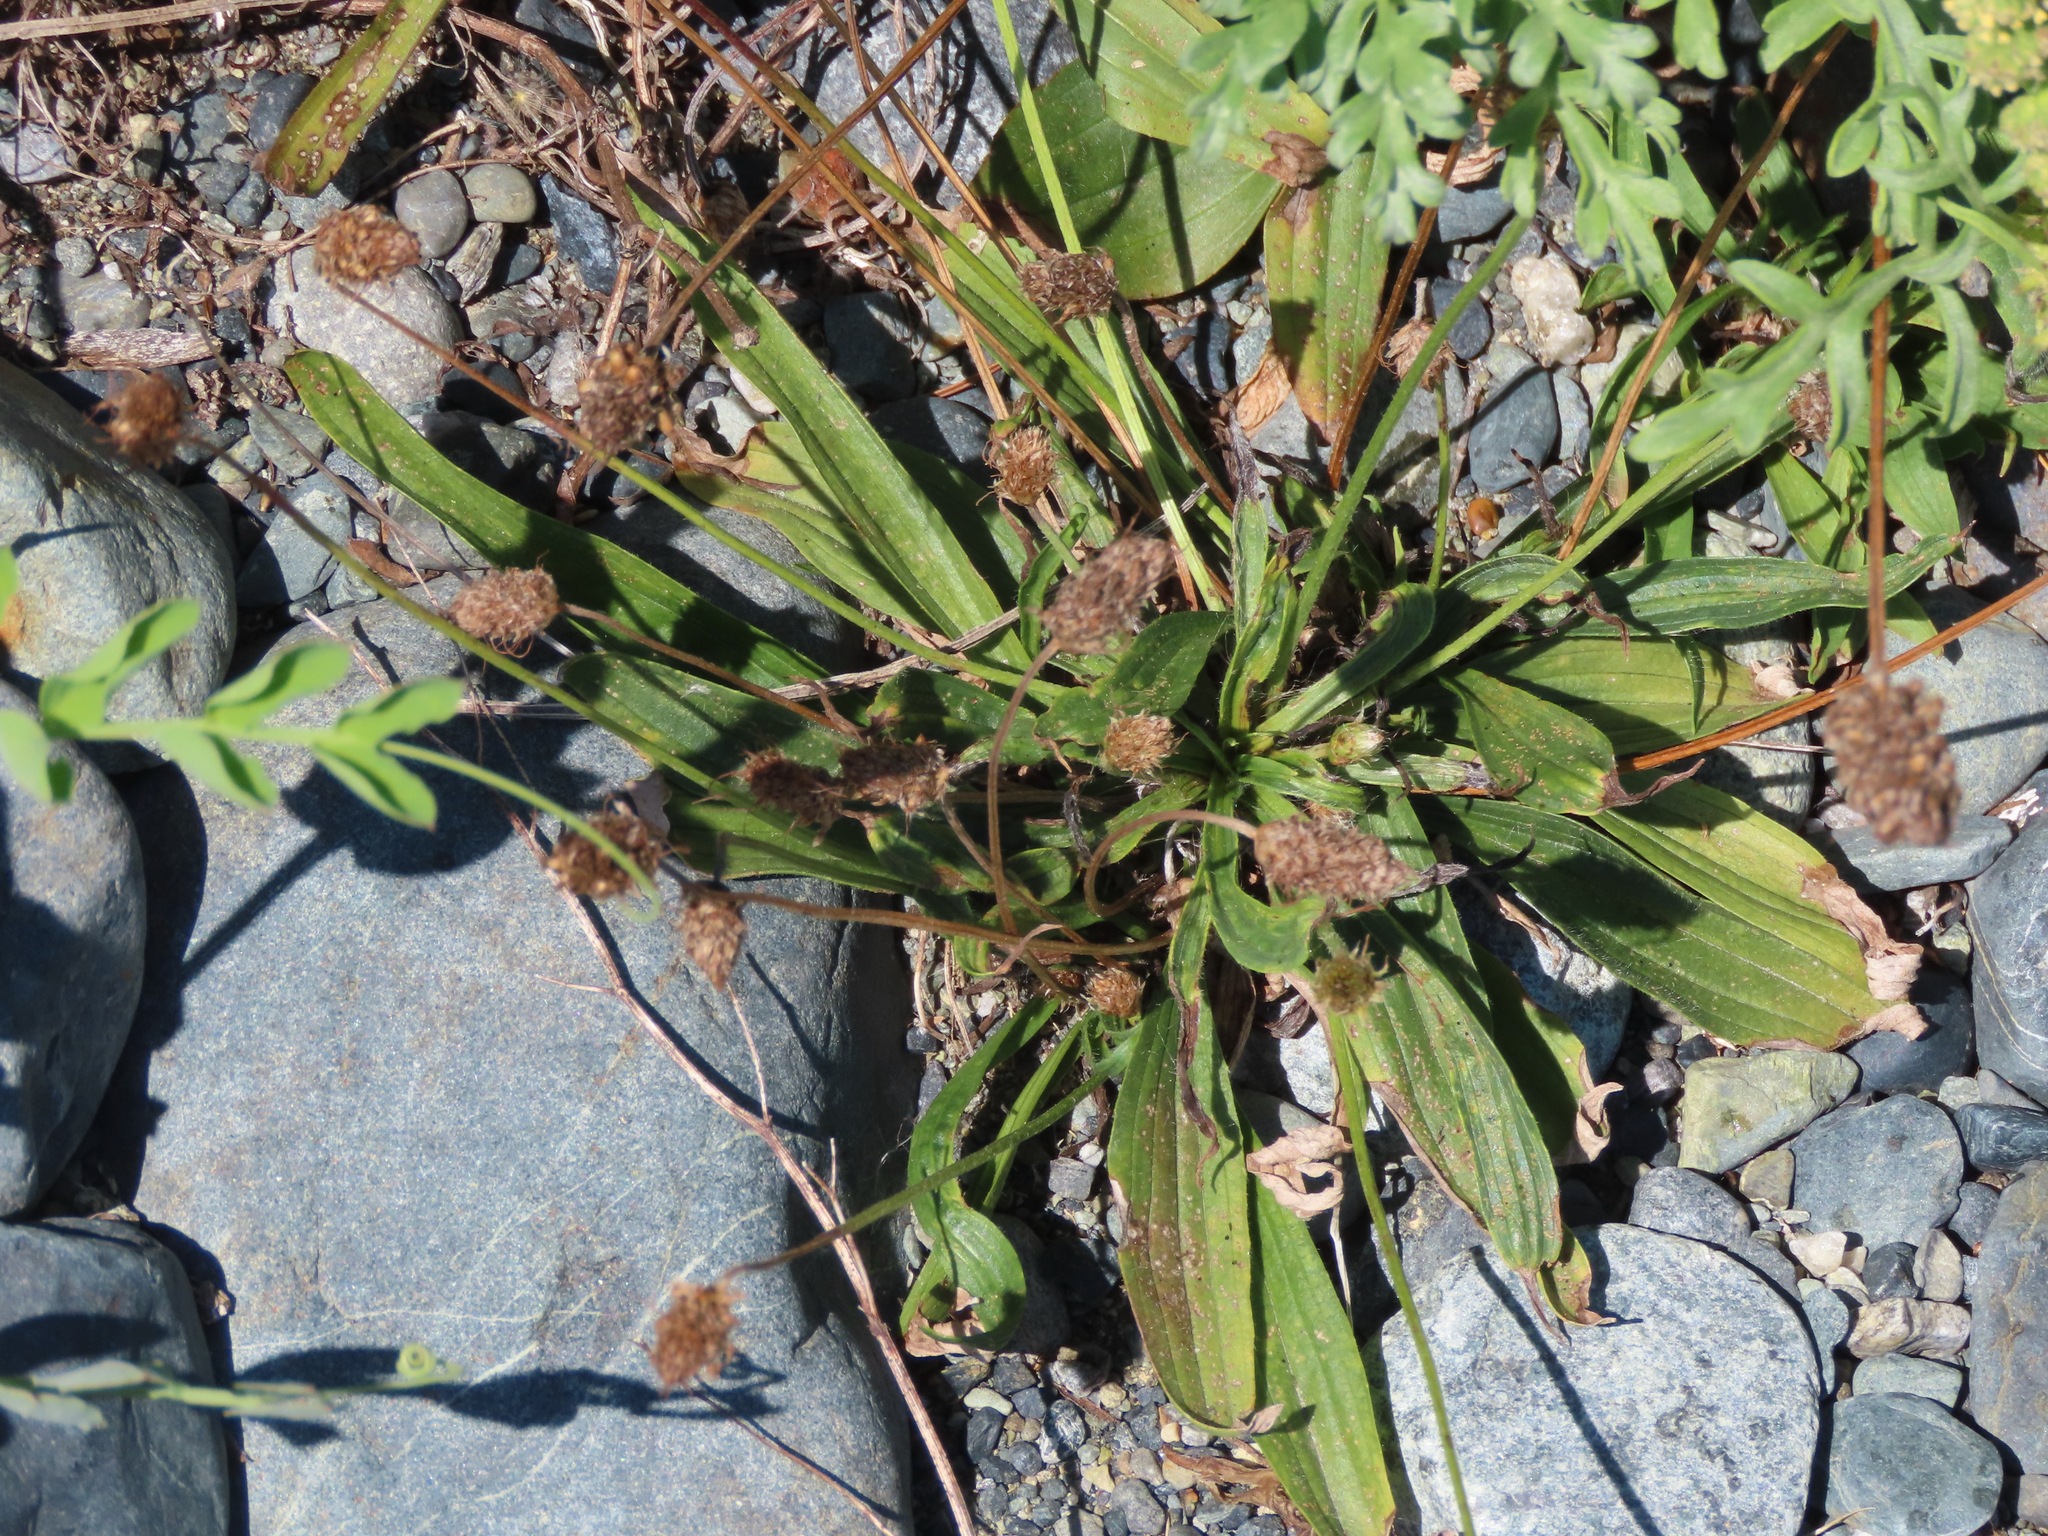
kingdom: Plantae
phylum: Tracheophyta
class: Magnoliopsida
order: Lamiales
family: Plantaginaceae
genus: Plantago
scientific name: Plantago lanceolata
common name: Ribwort plantain
